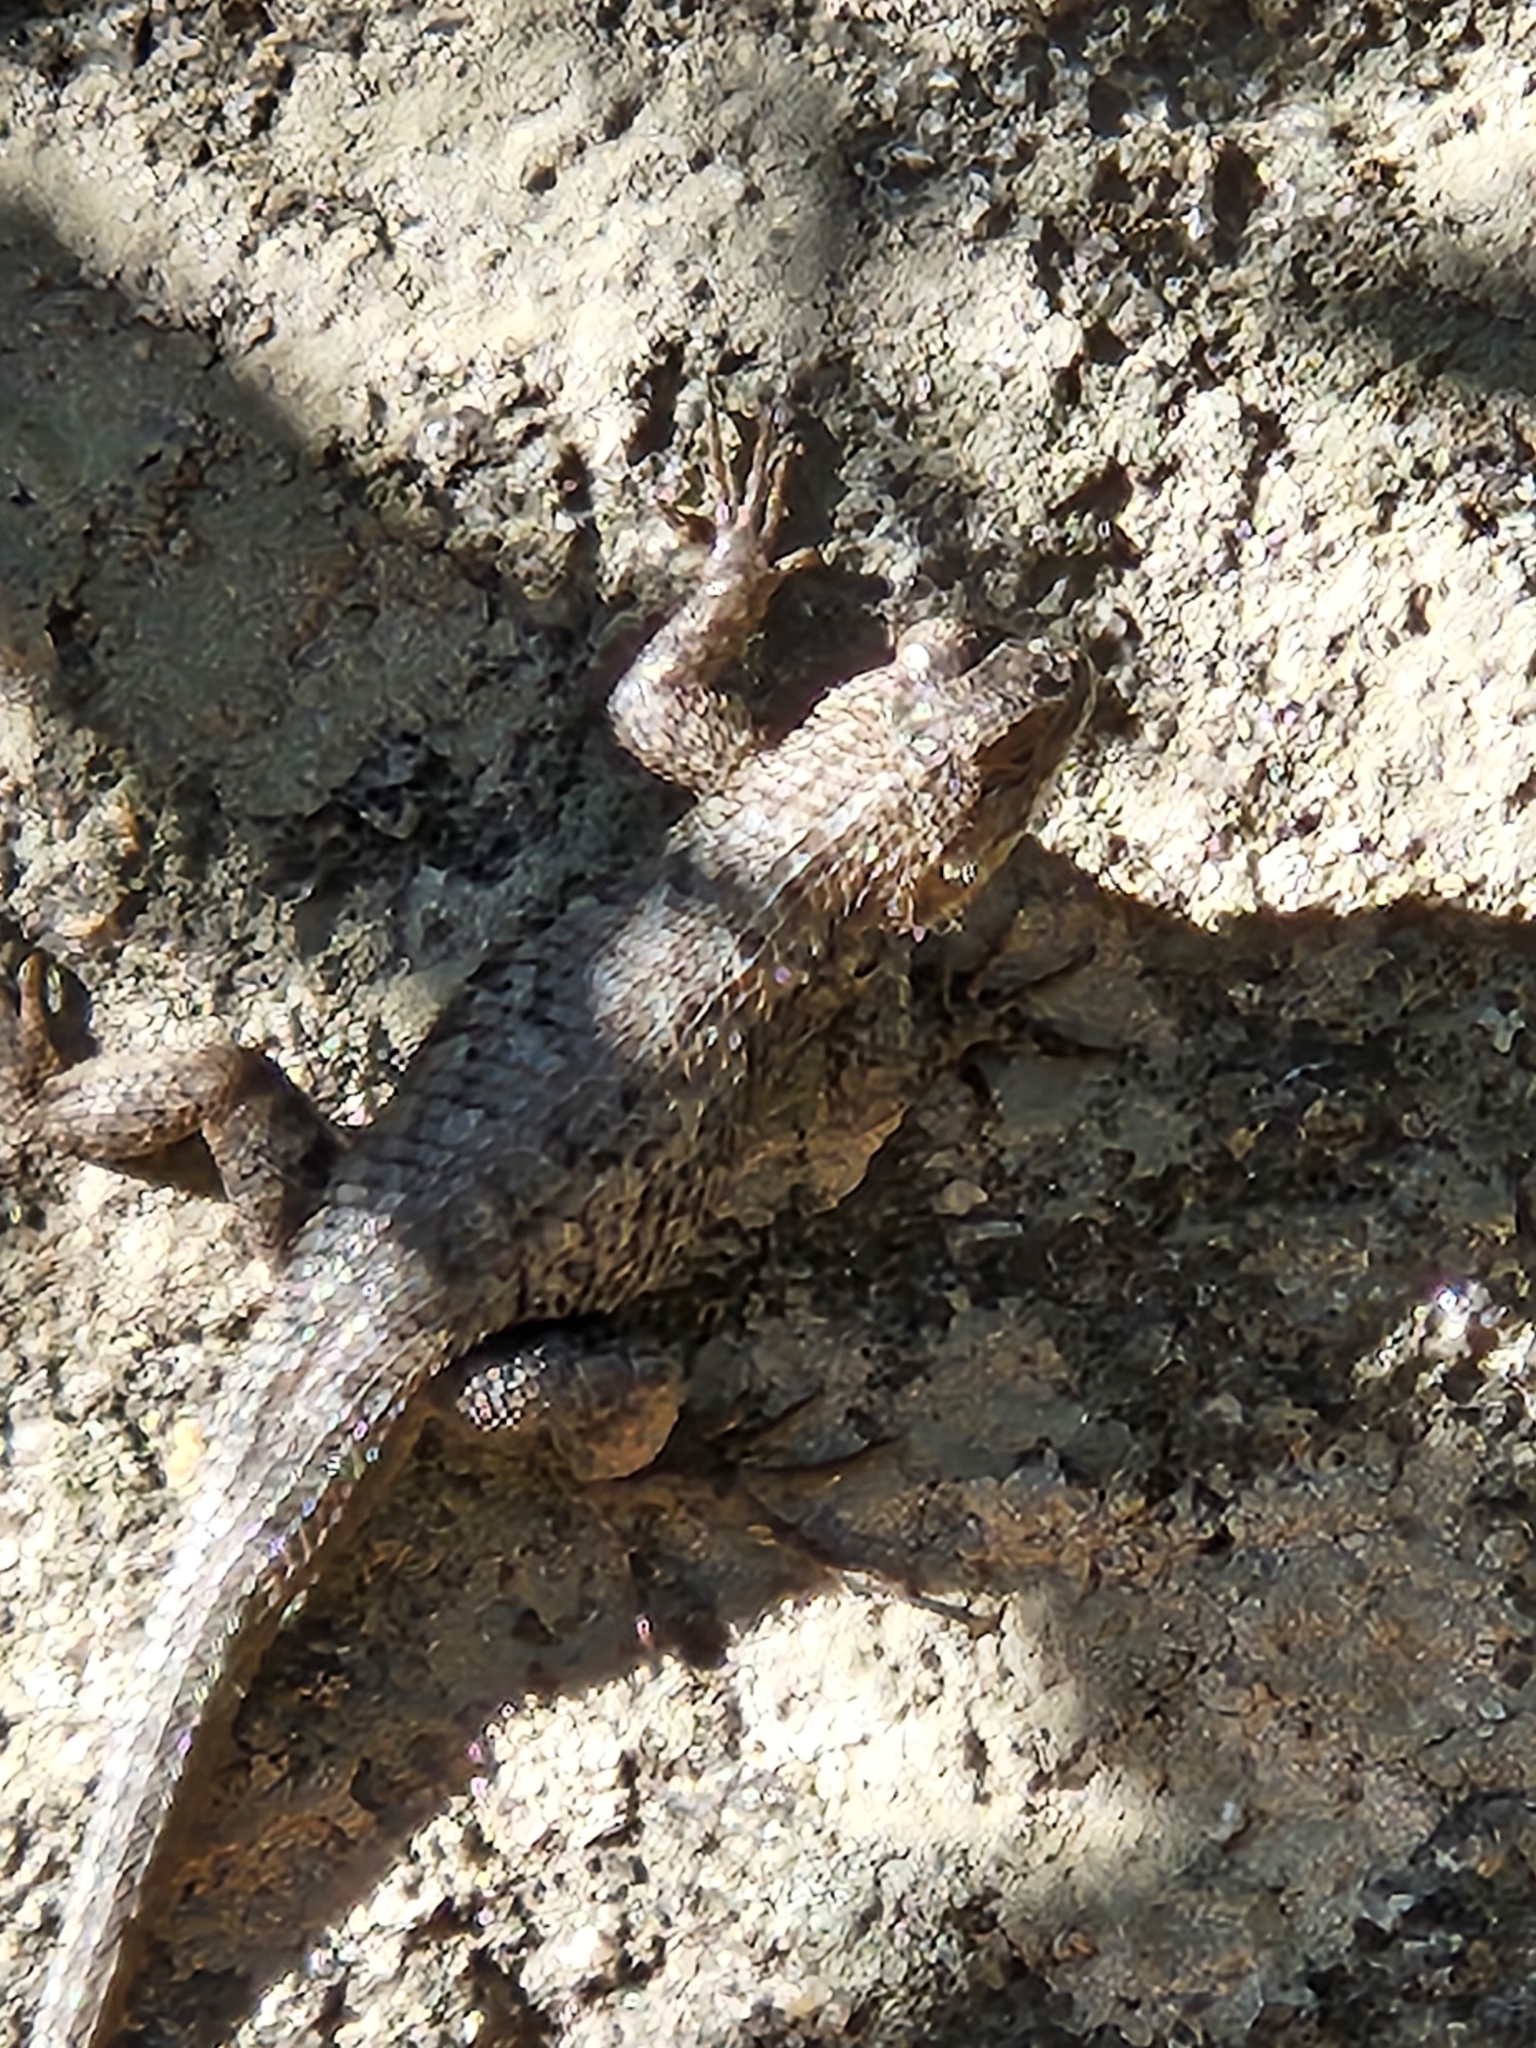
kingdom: Animalia
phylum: Chordata
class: Squamata
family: Phrynosomatidae
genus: Sceloporus
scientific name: Sceloporus occidentalis
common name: Western fence lizard
